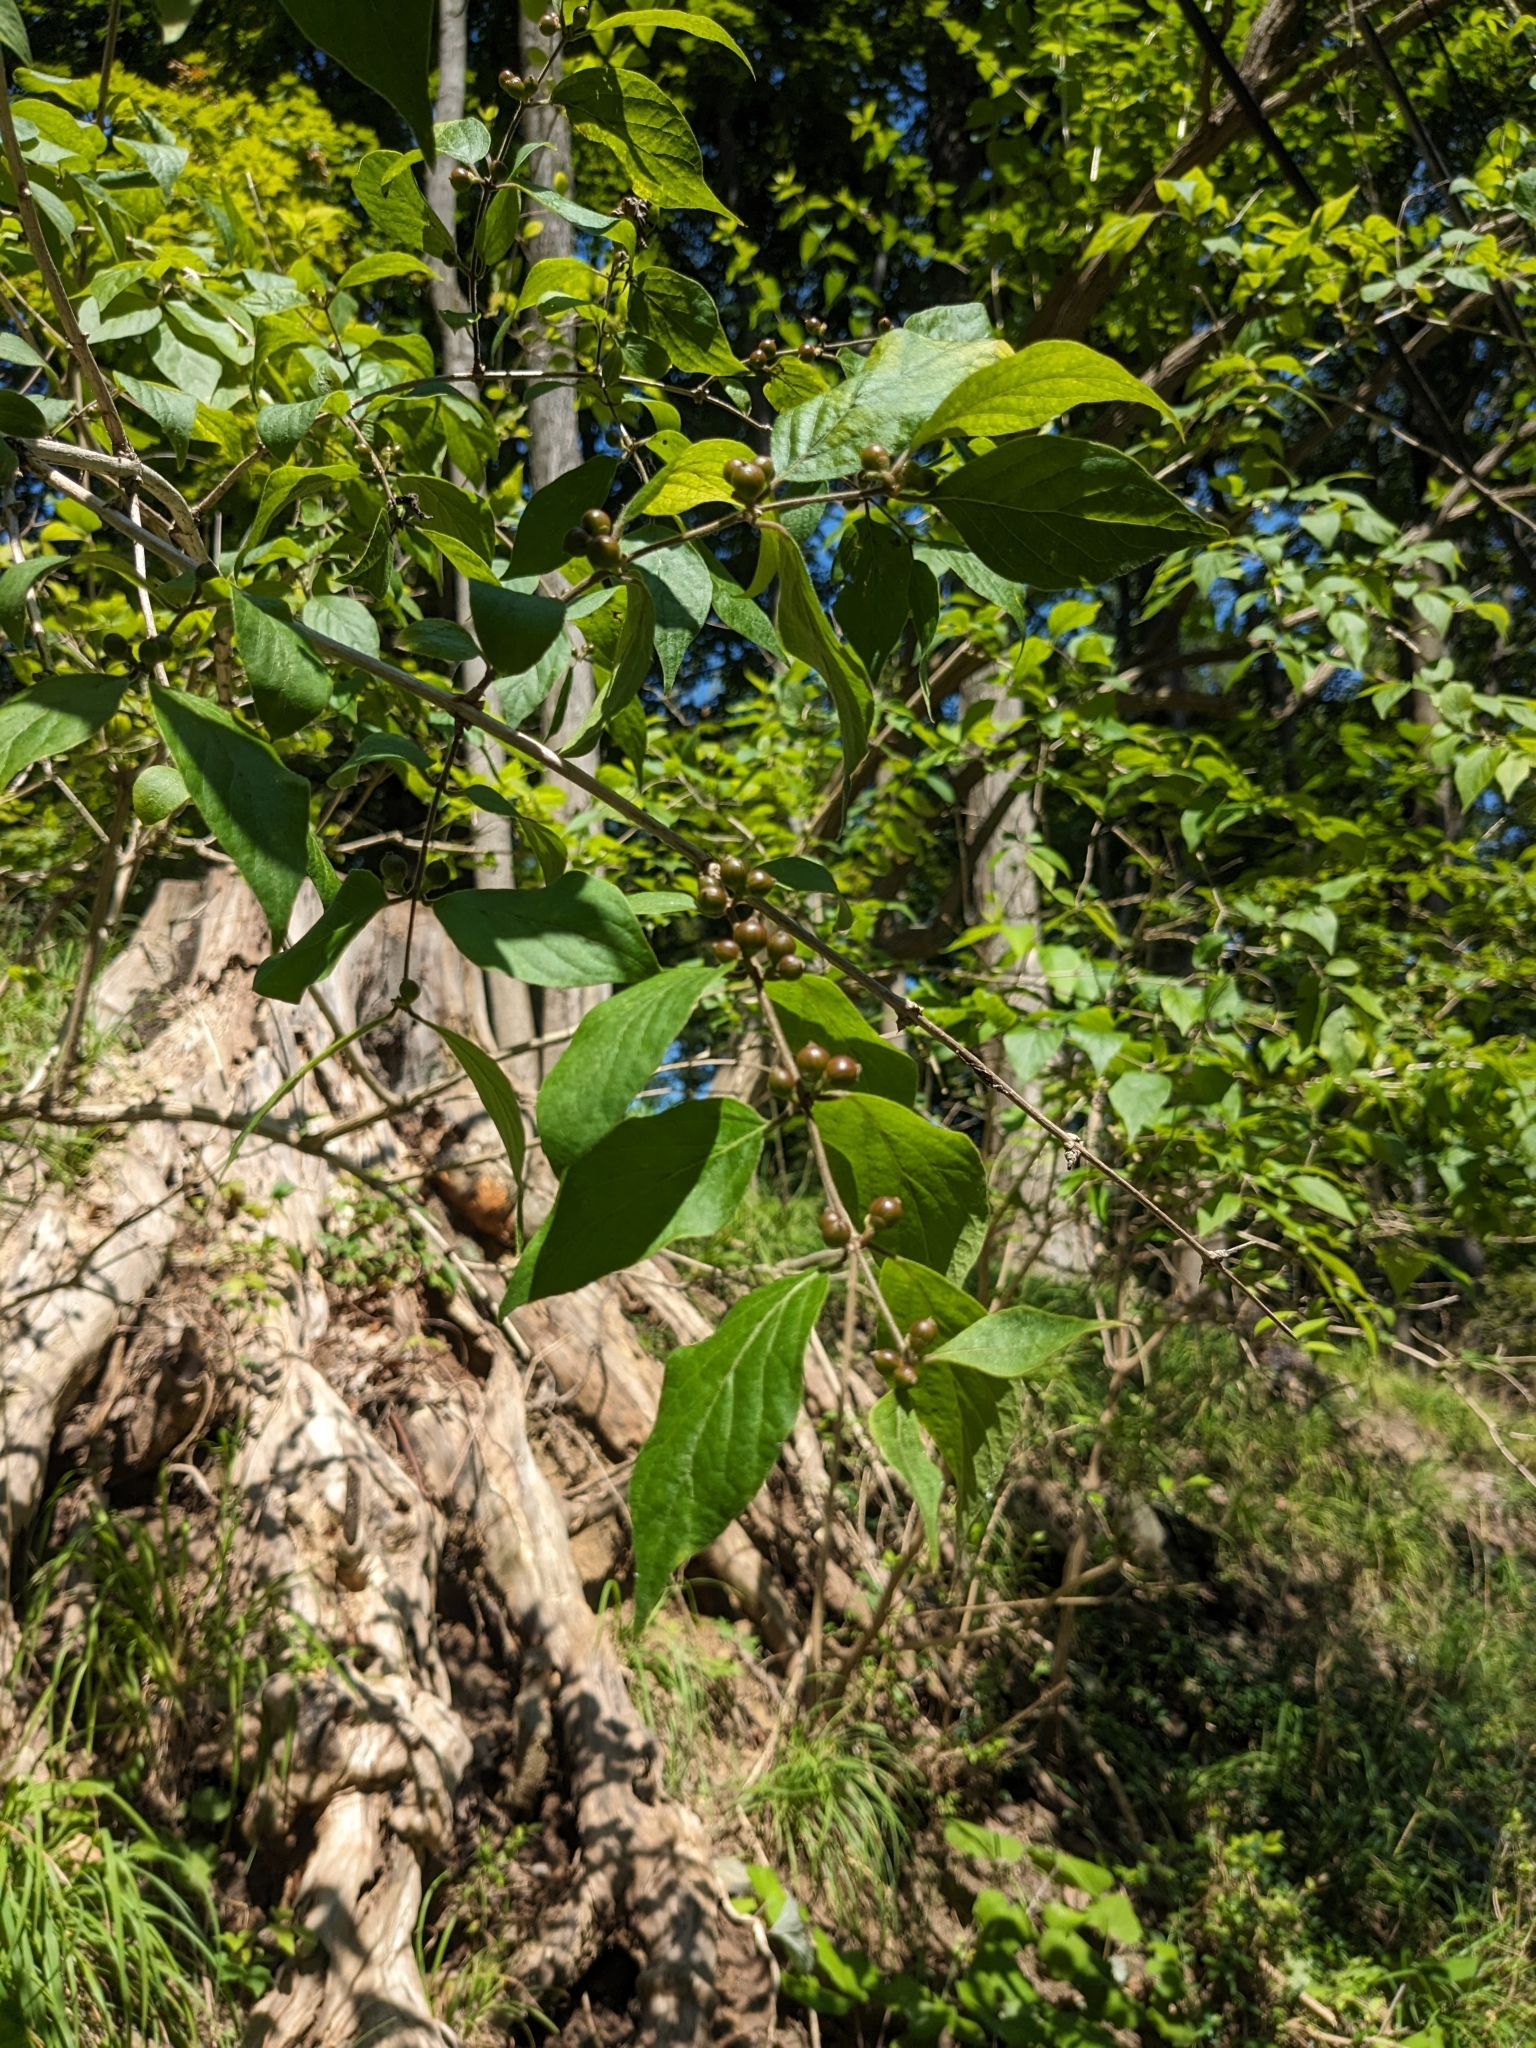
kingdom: Plantae
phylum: Tracheophyta
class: Magnoliopsida
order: Dipsacales
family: Caprifoliaceae
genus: Lonicera
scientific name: Lonicera maackii
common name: Amur honeysuckle
